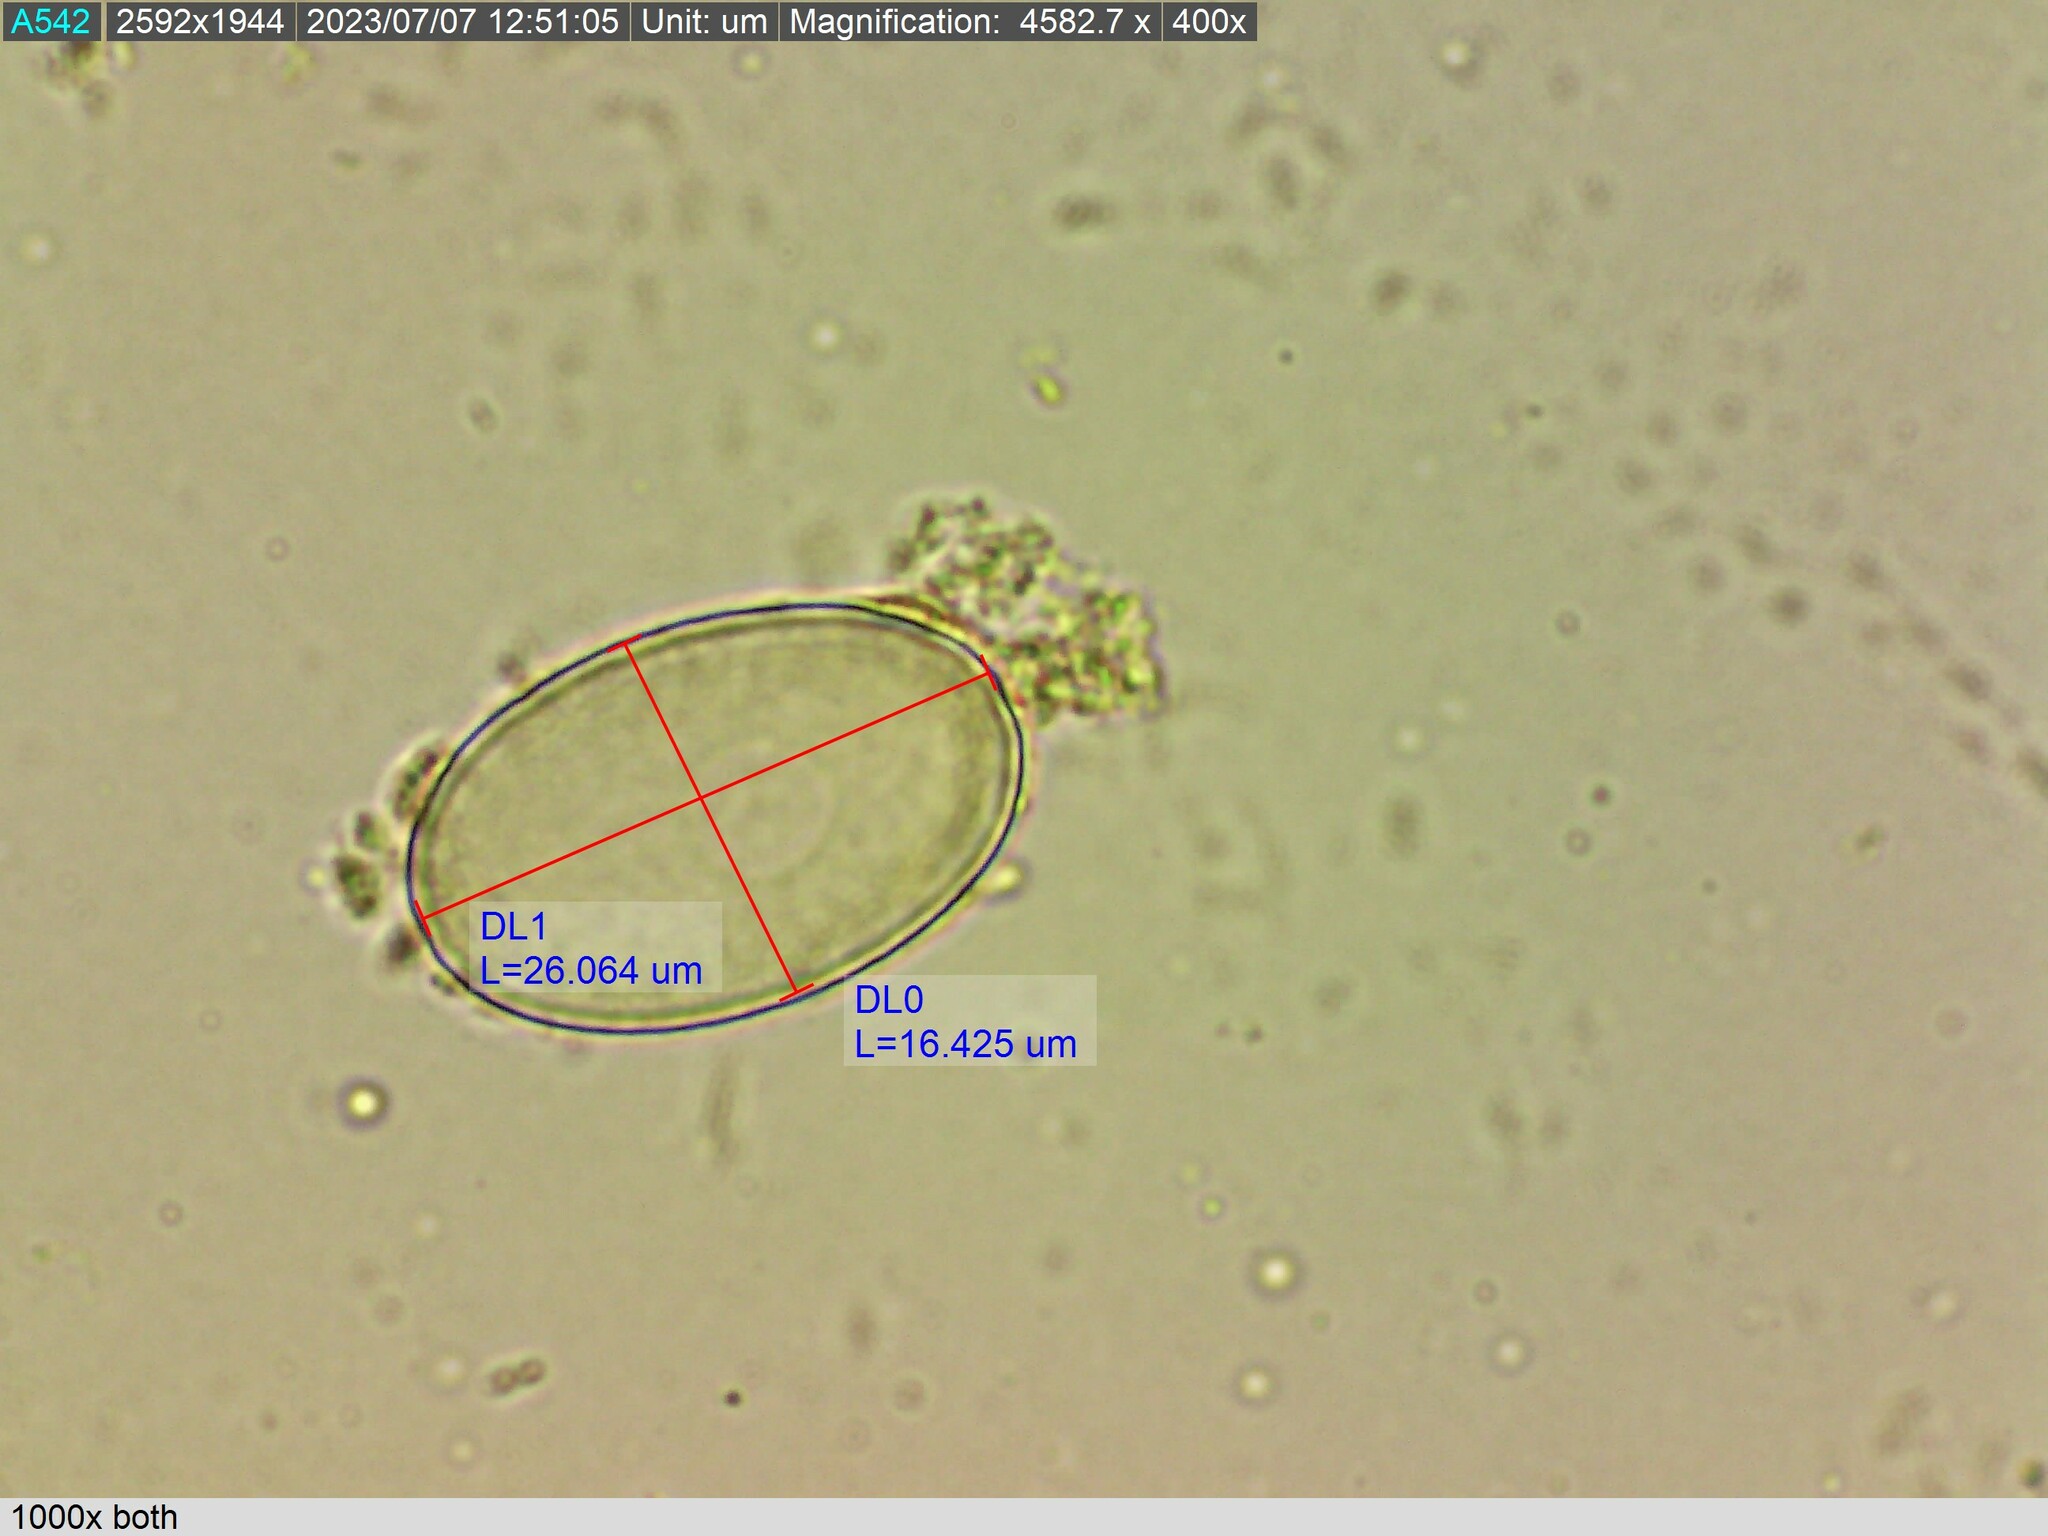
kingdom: Fungi
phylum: Ascomycota
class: Pezizomycetes
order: Pezizales
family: Pyronemataceae
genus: Cheilymenia
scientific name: Cheilymenia raripila
